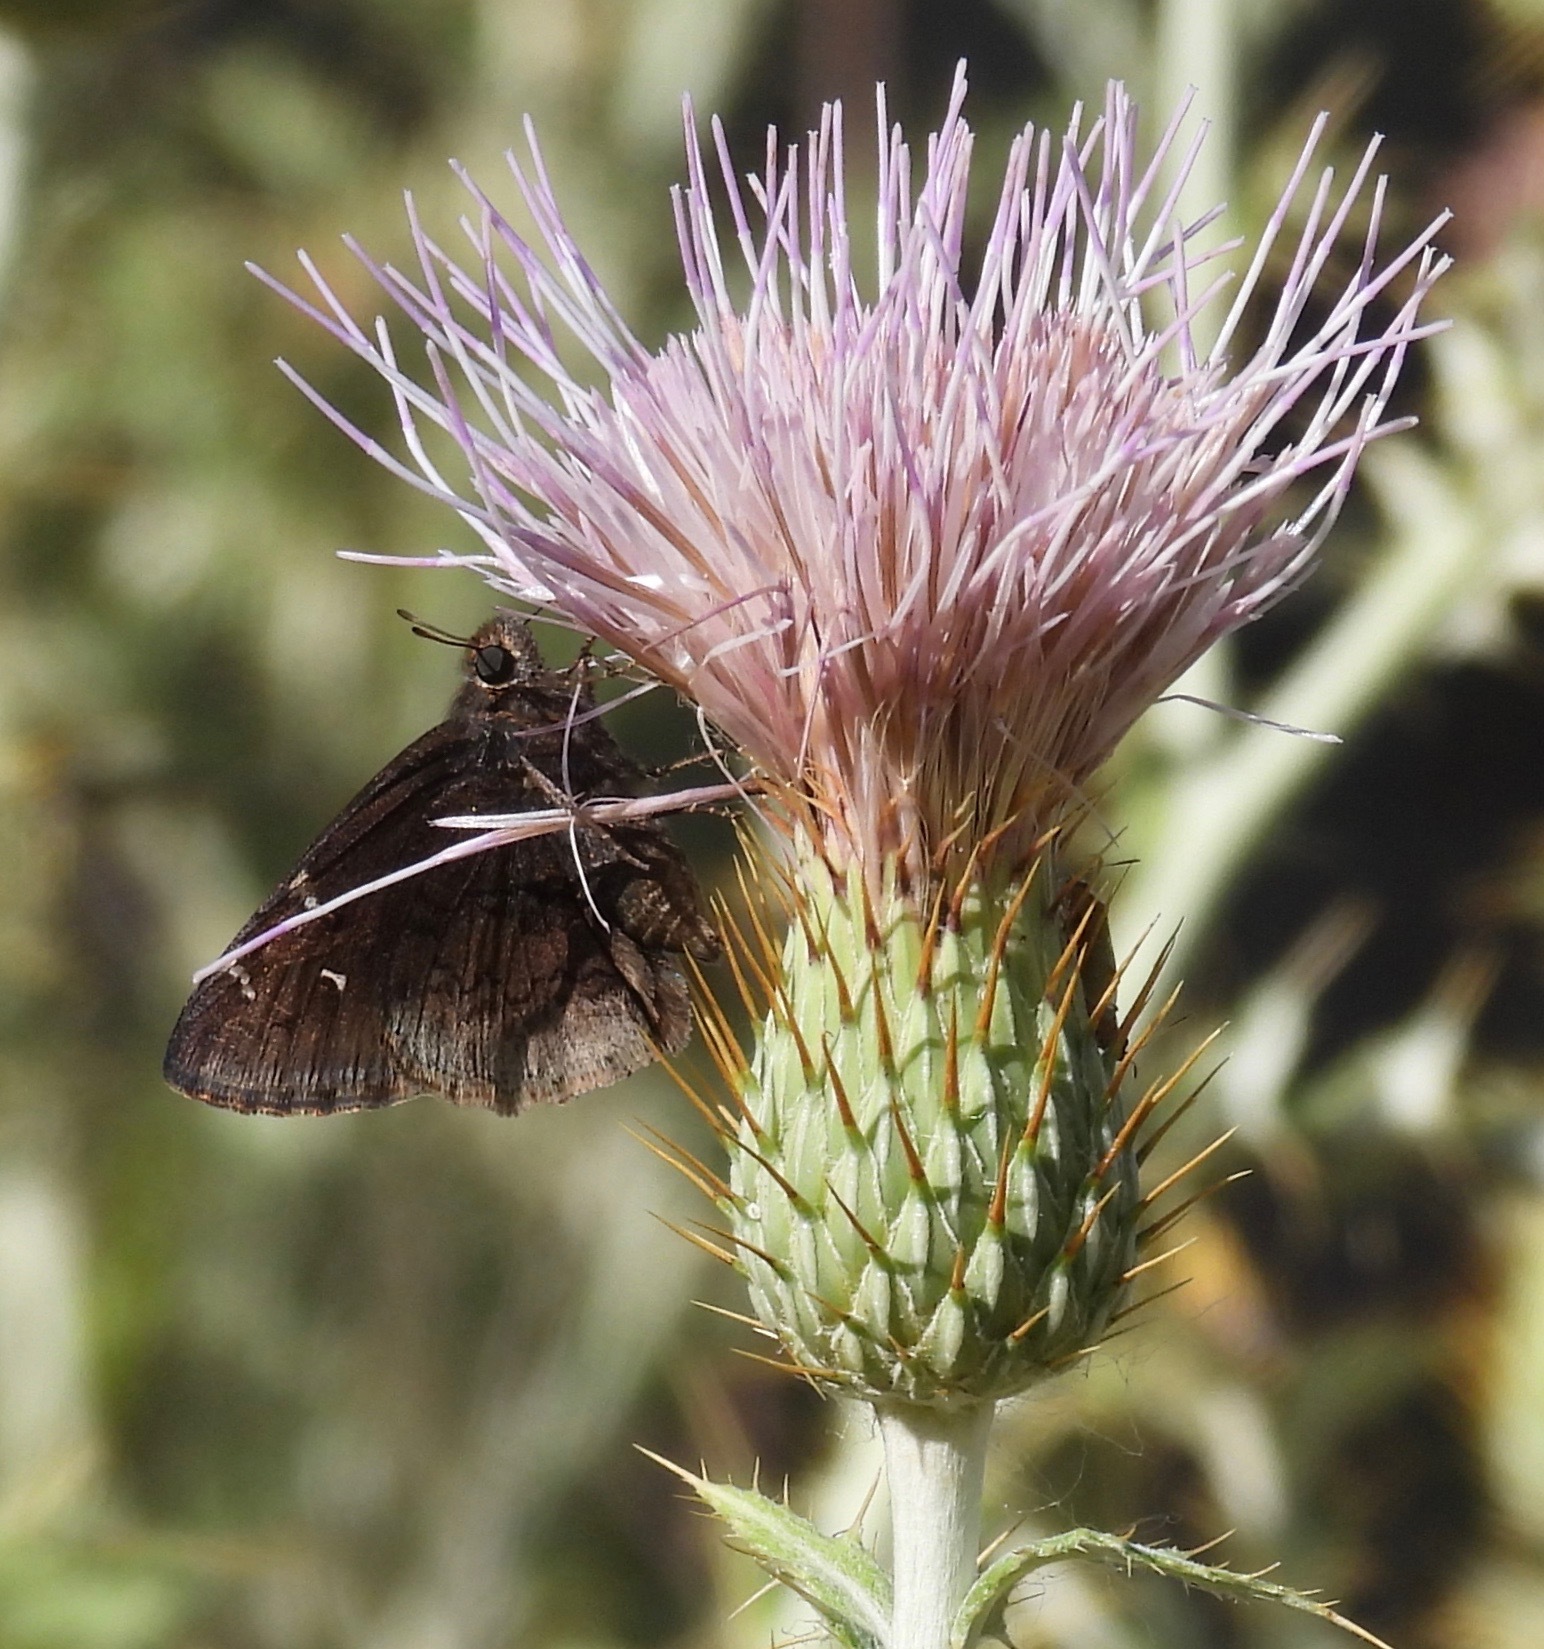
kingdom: Animalia
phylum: Arthropoda
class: Insecta
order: Lepidoptera
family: Hesperiidae
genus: Thorybes
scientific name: Thorybes pylades
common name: Northern cloudywing
